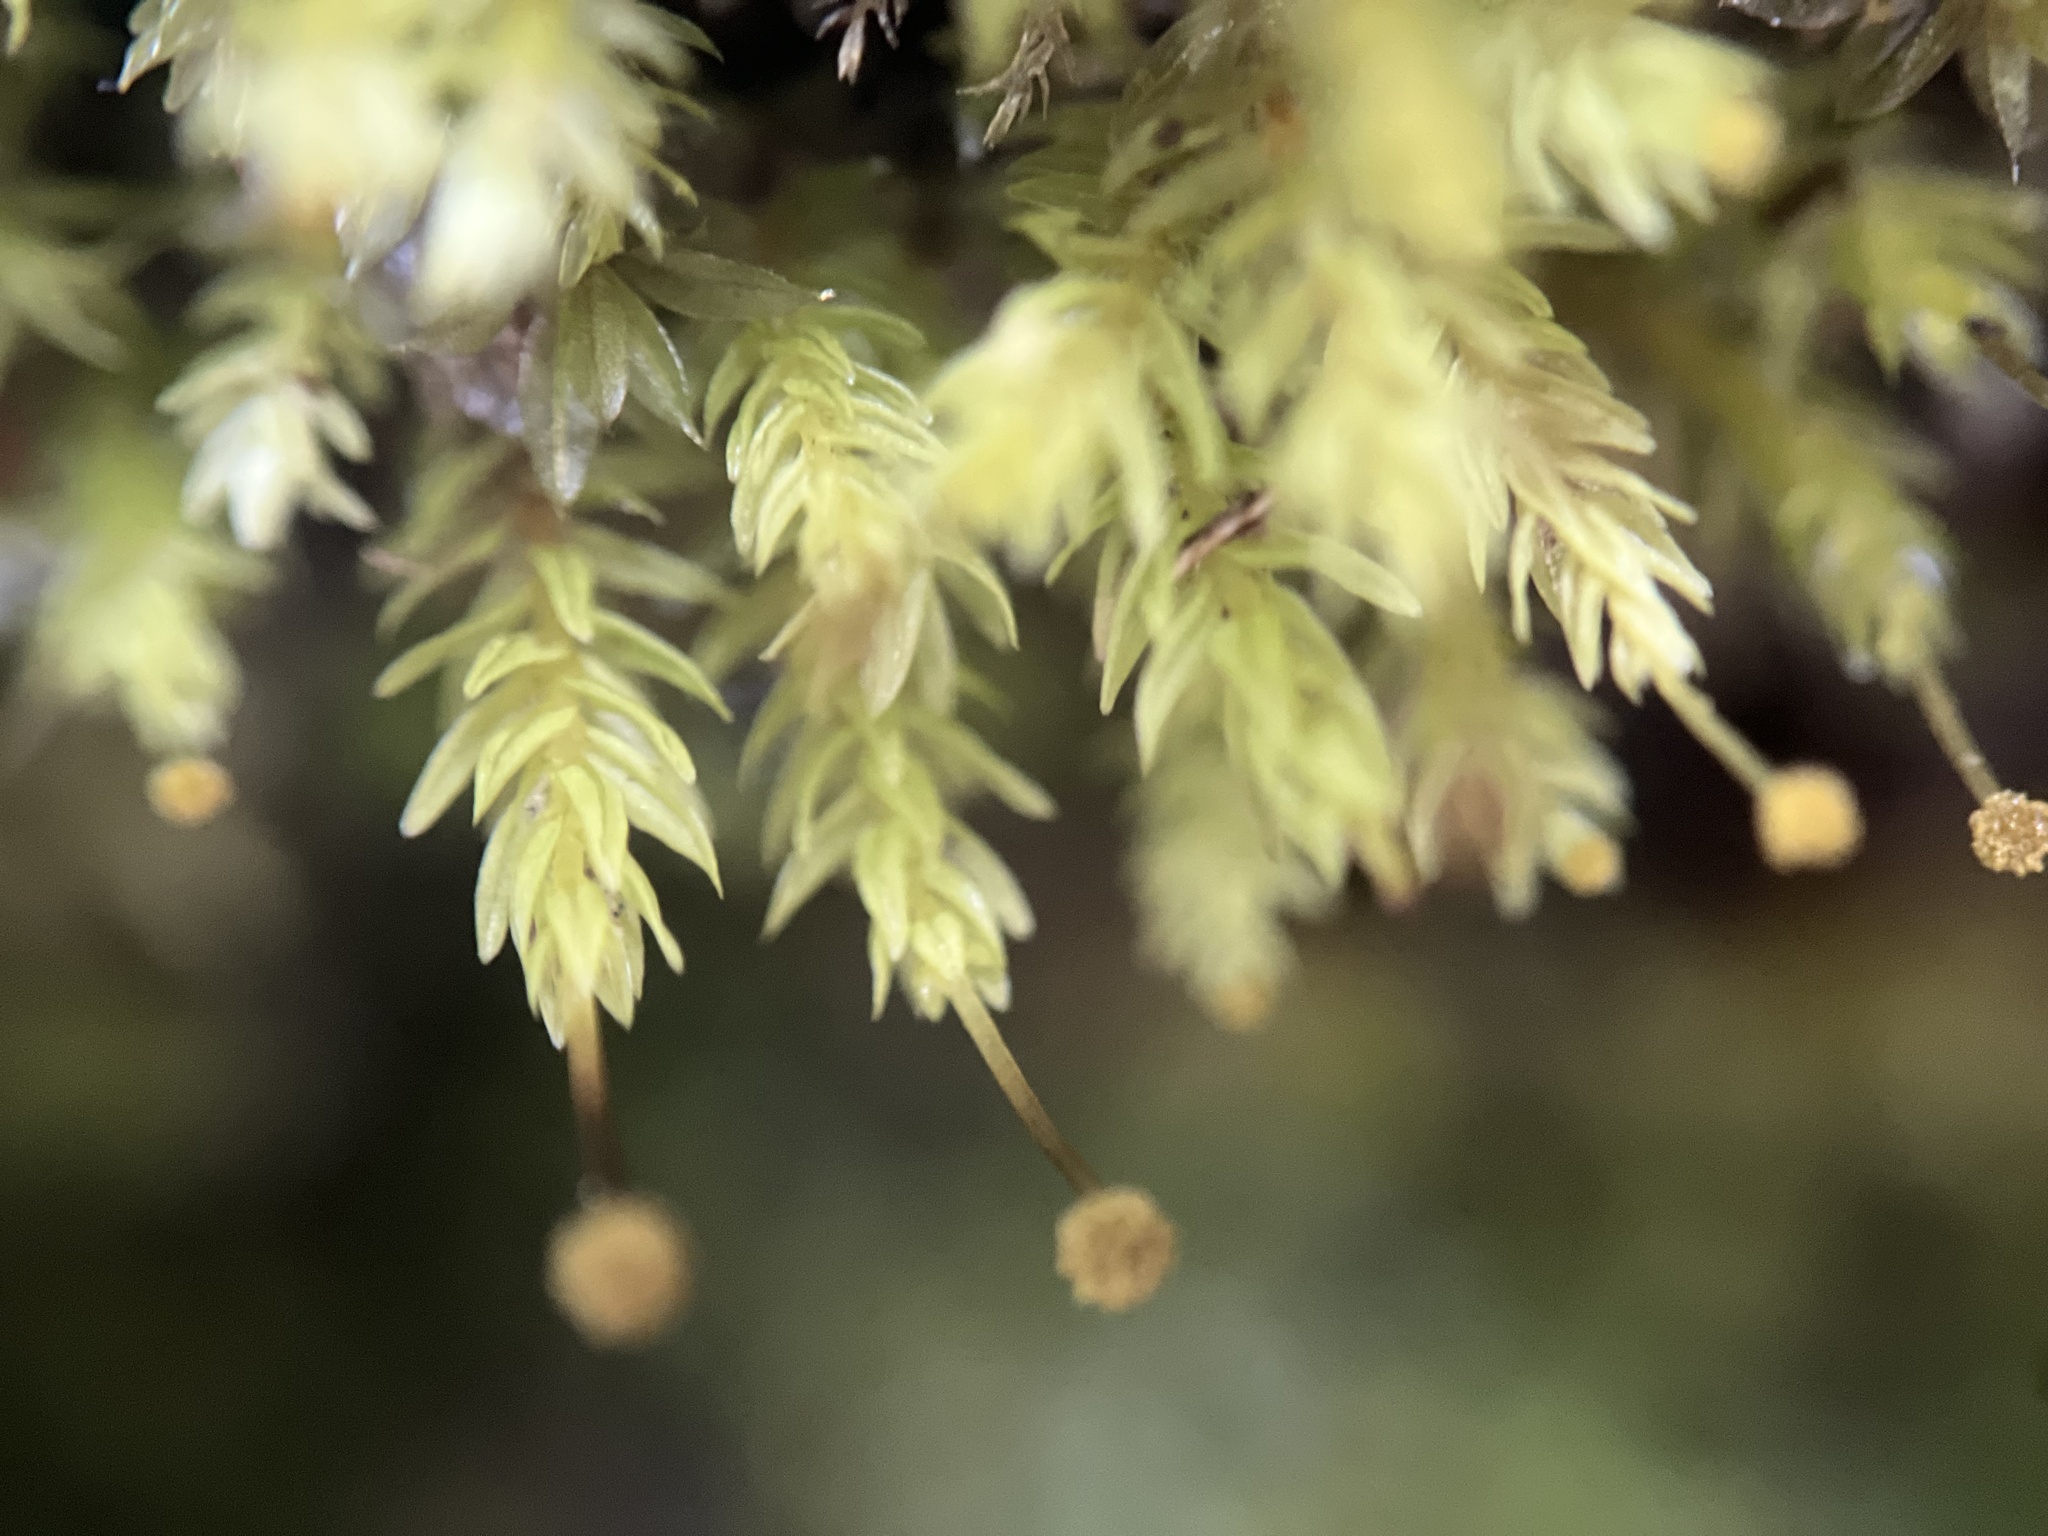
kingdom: Plantae
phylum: Bryophyta
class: Bryopsida
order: Aulacomniales
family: Aulacomniaceae
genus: Aulacomnium
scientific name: Aulacomnium androgynum
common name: Little groove moss
